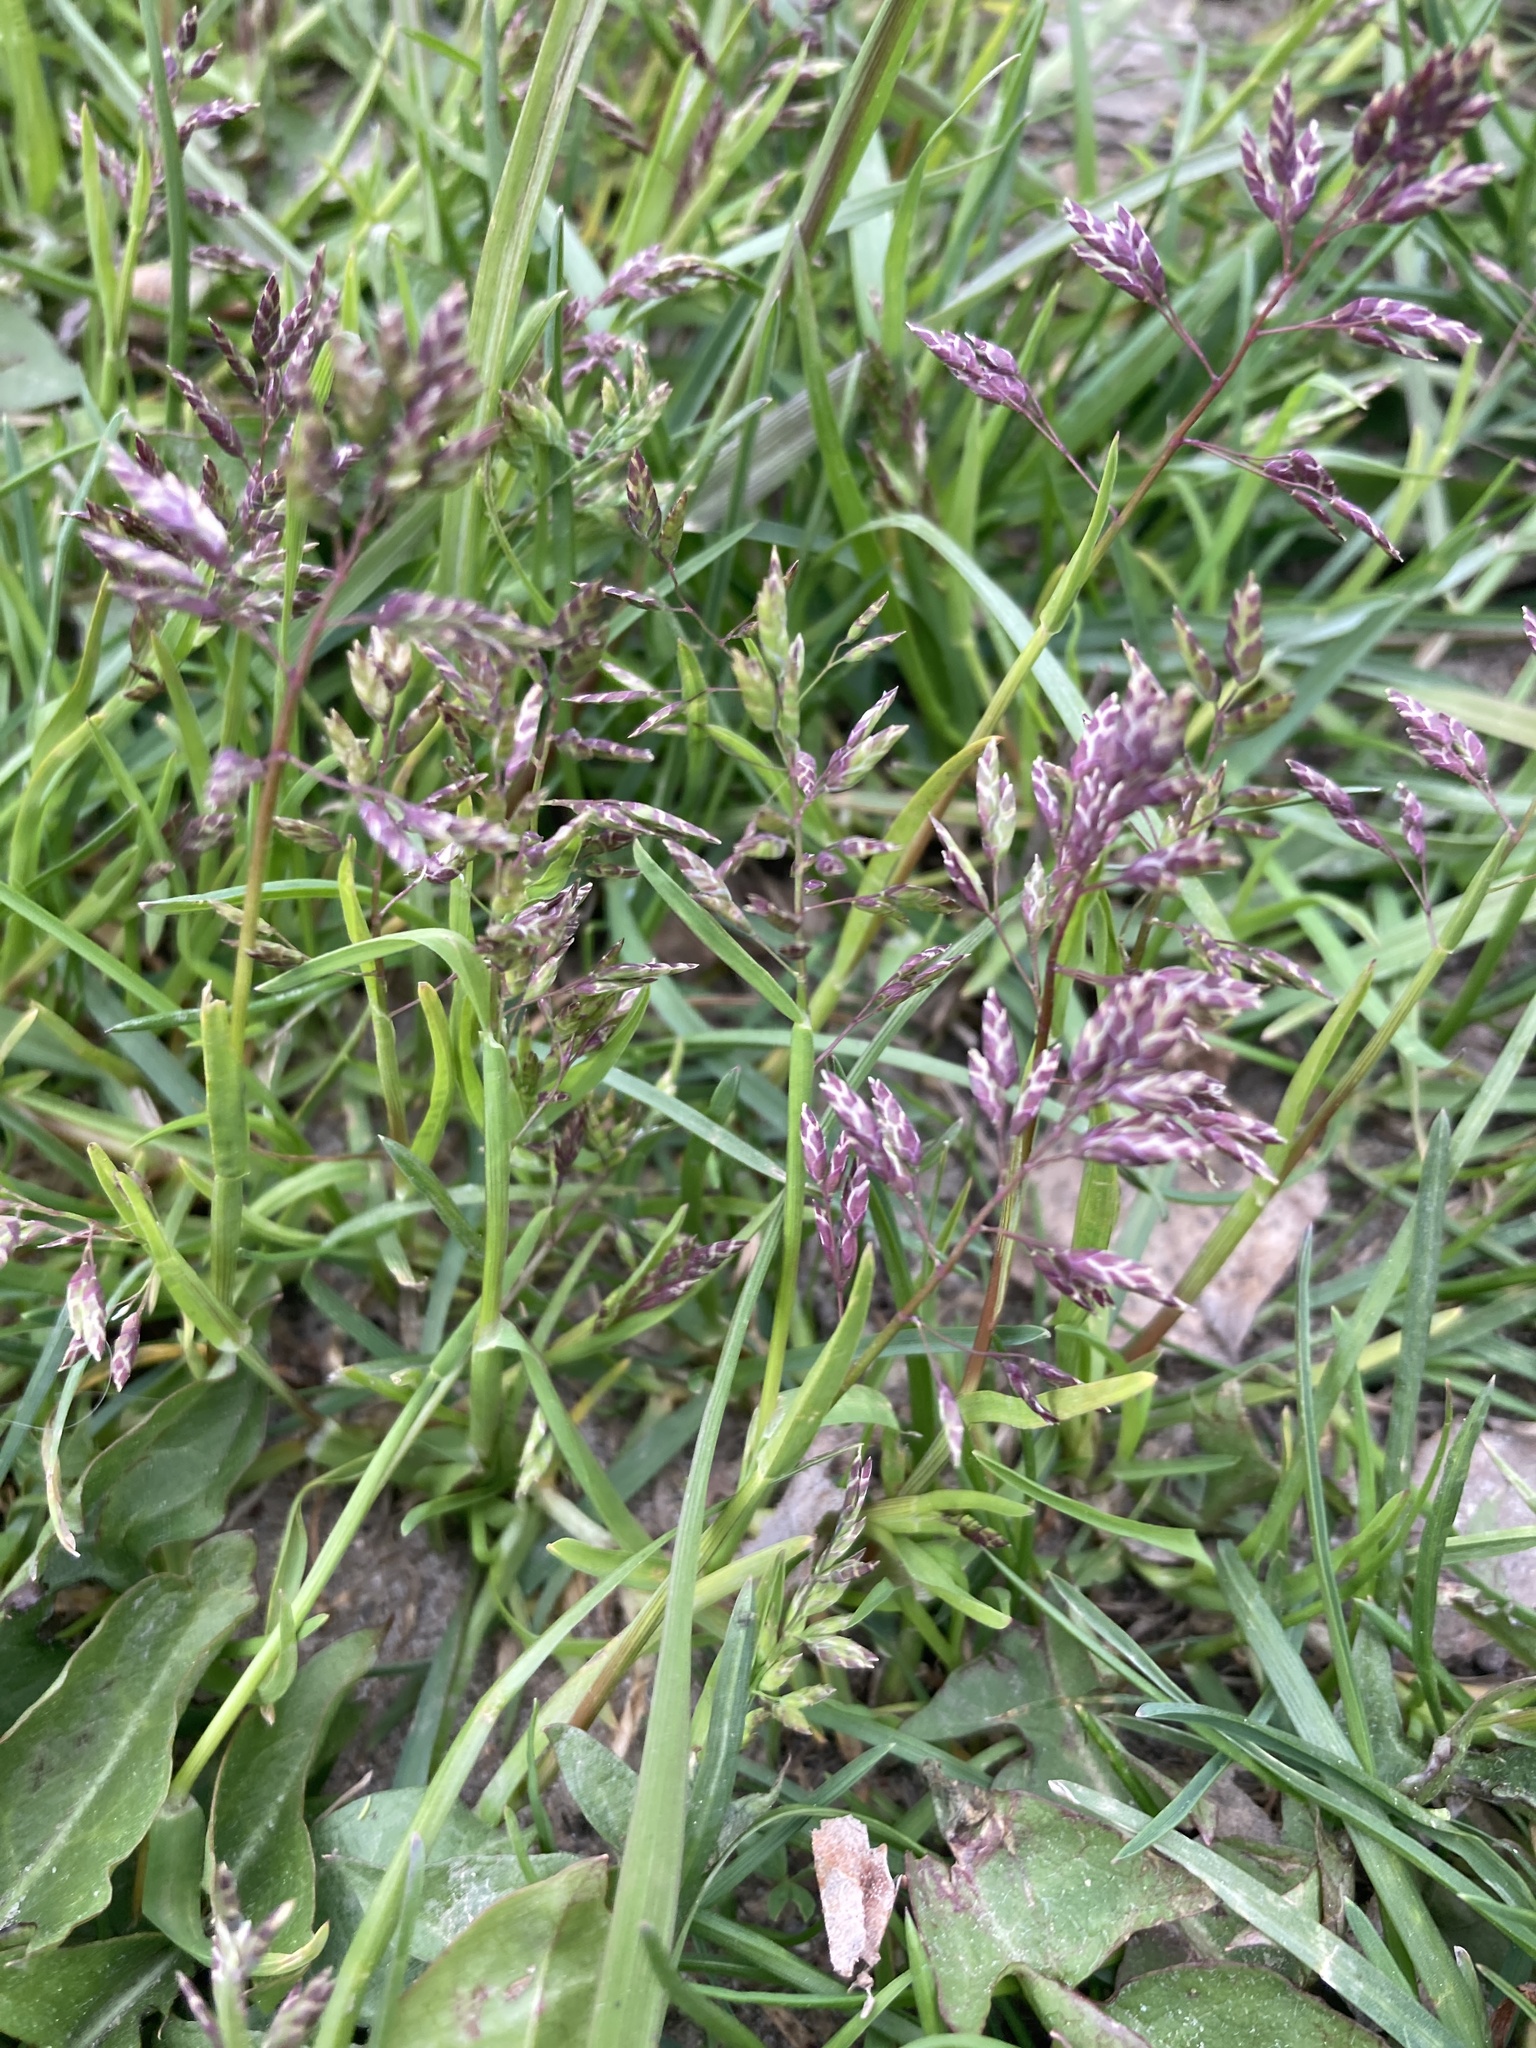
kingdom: Plantae
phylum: Tracheophyta
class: Liliopsida
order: Poales
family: Poaceae
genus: Poa
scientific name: Poa annua
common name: Annual bluegrass
